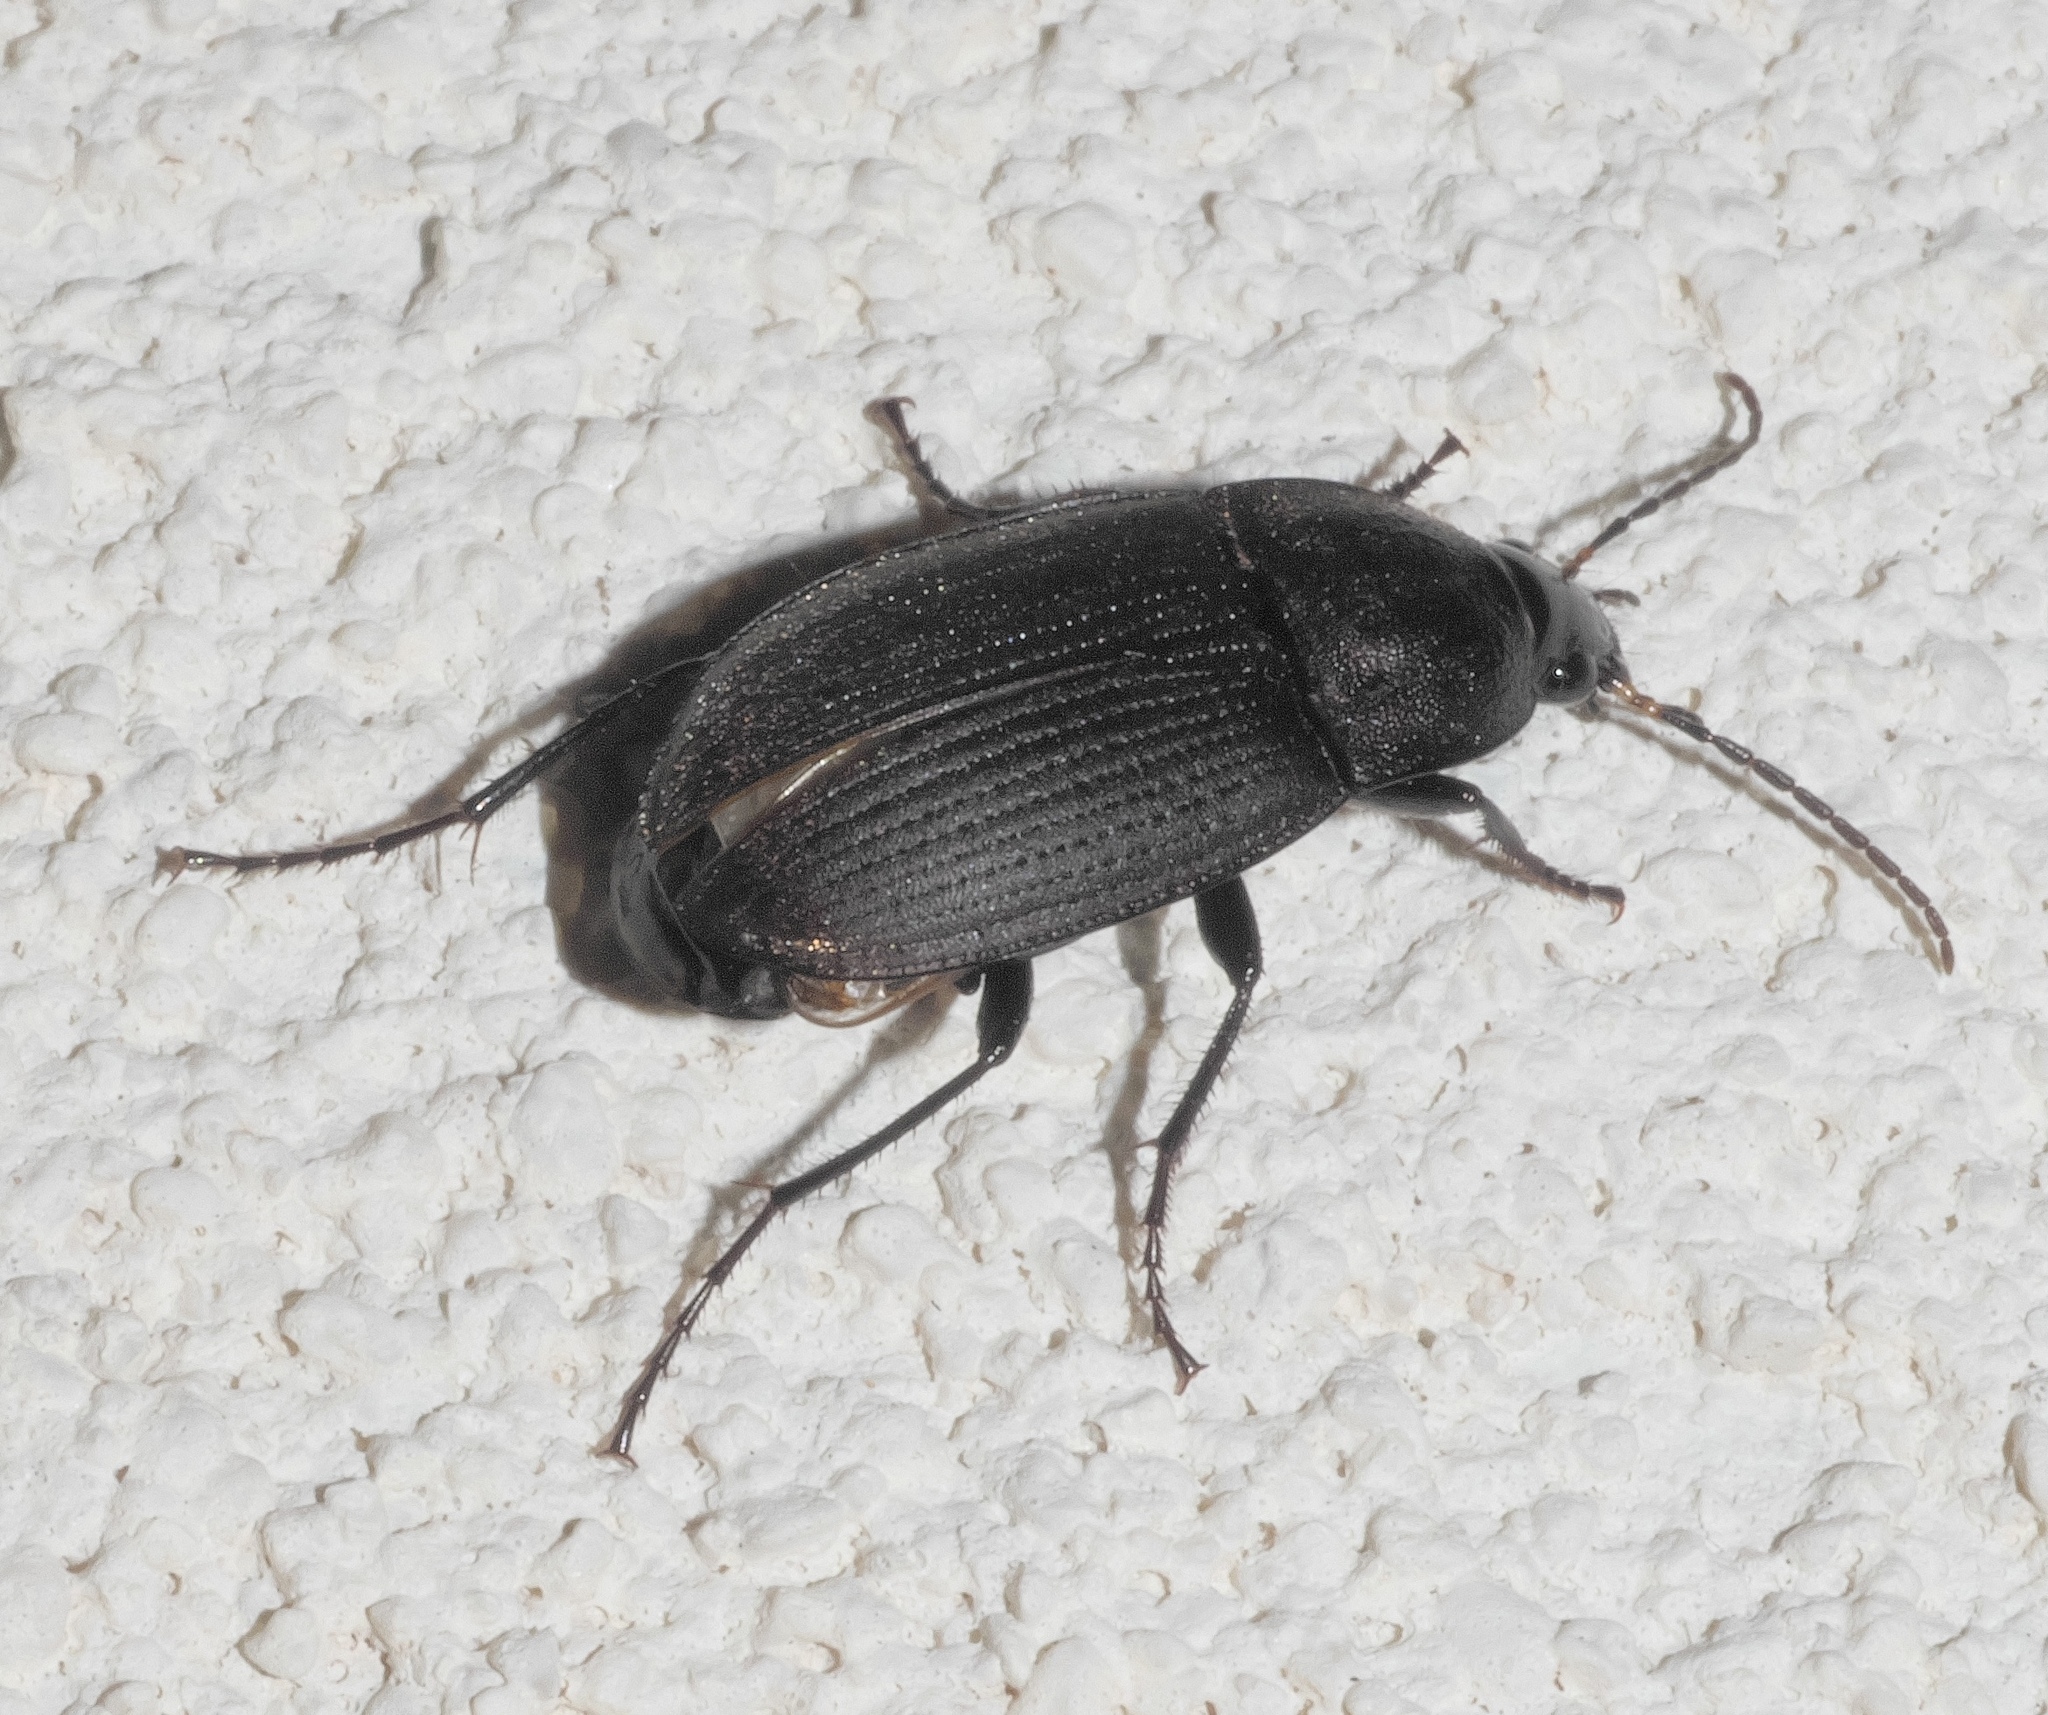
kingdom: Animalia
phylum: Arthropoda
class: Insecta
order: Coleoptera
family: Carabidae
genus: Chlaenius
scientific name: Chlaenius tomentosus
